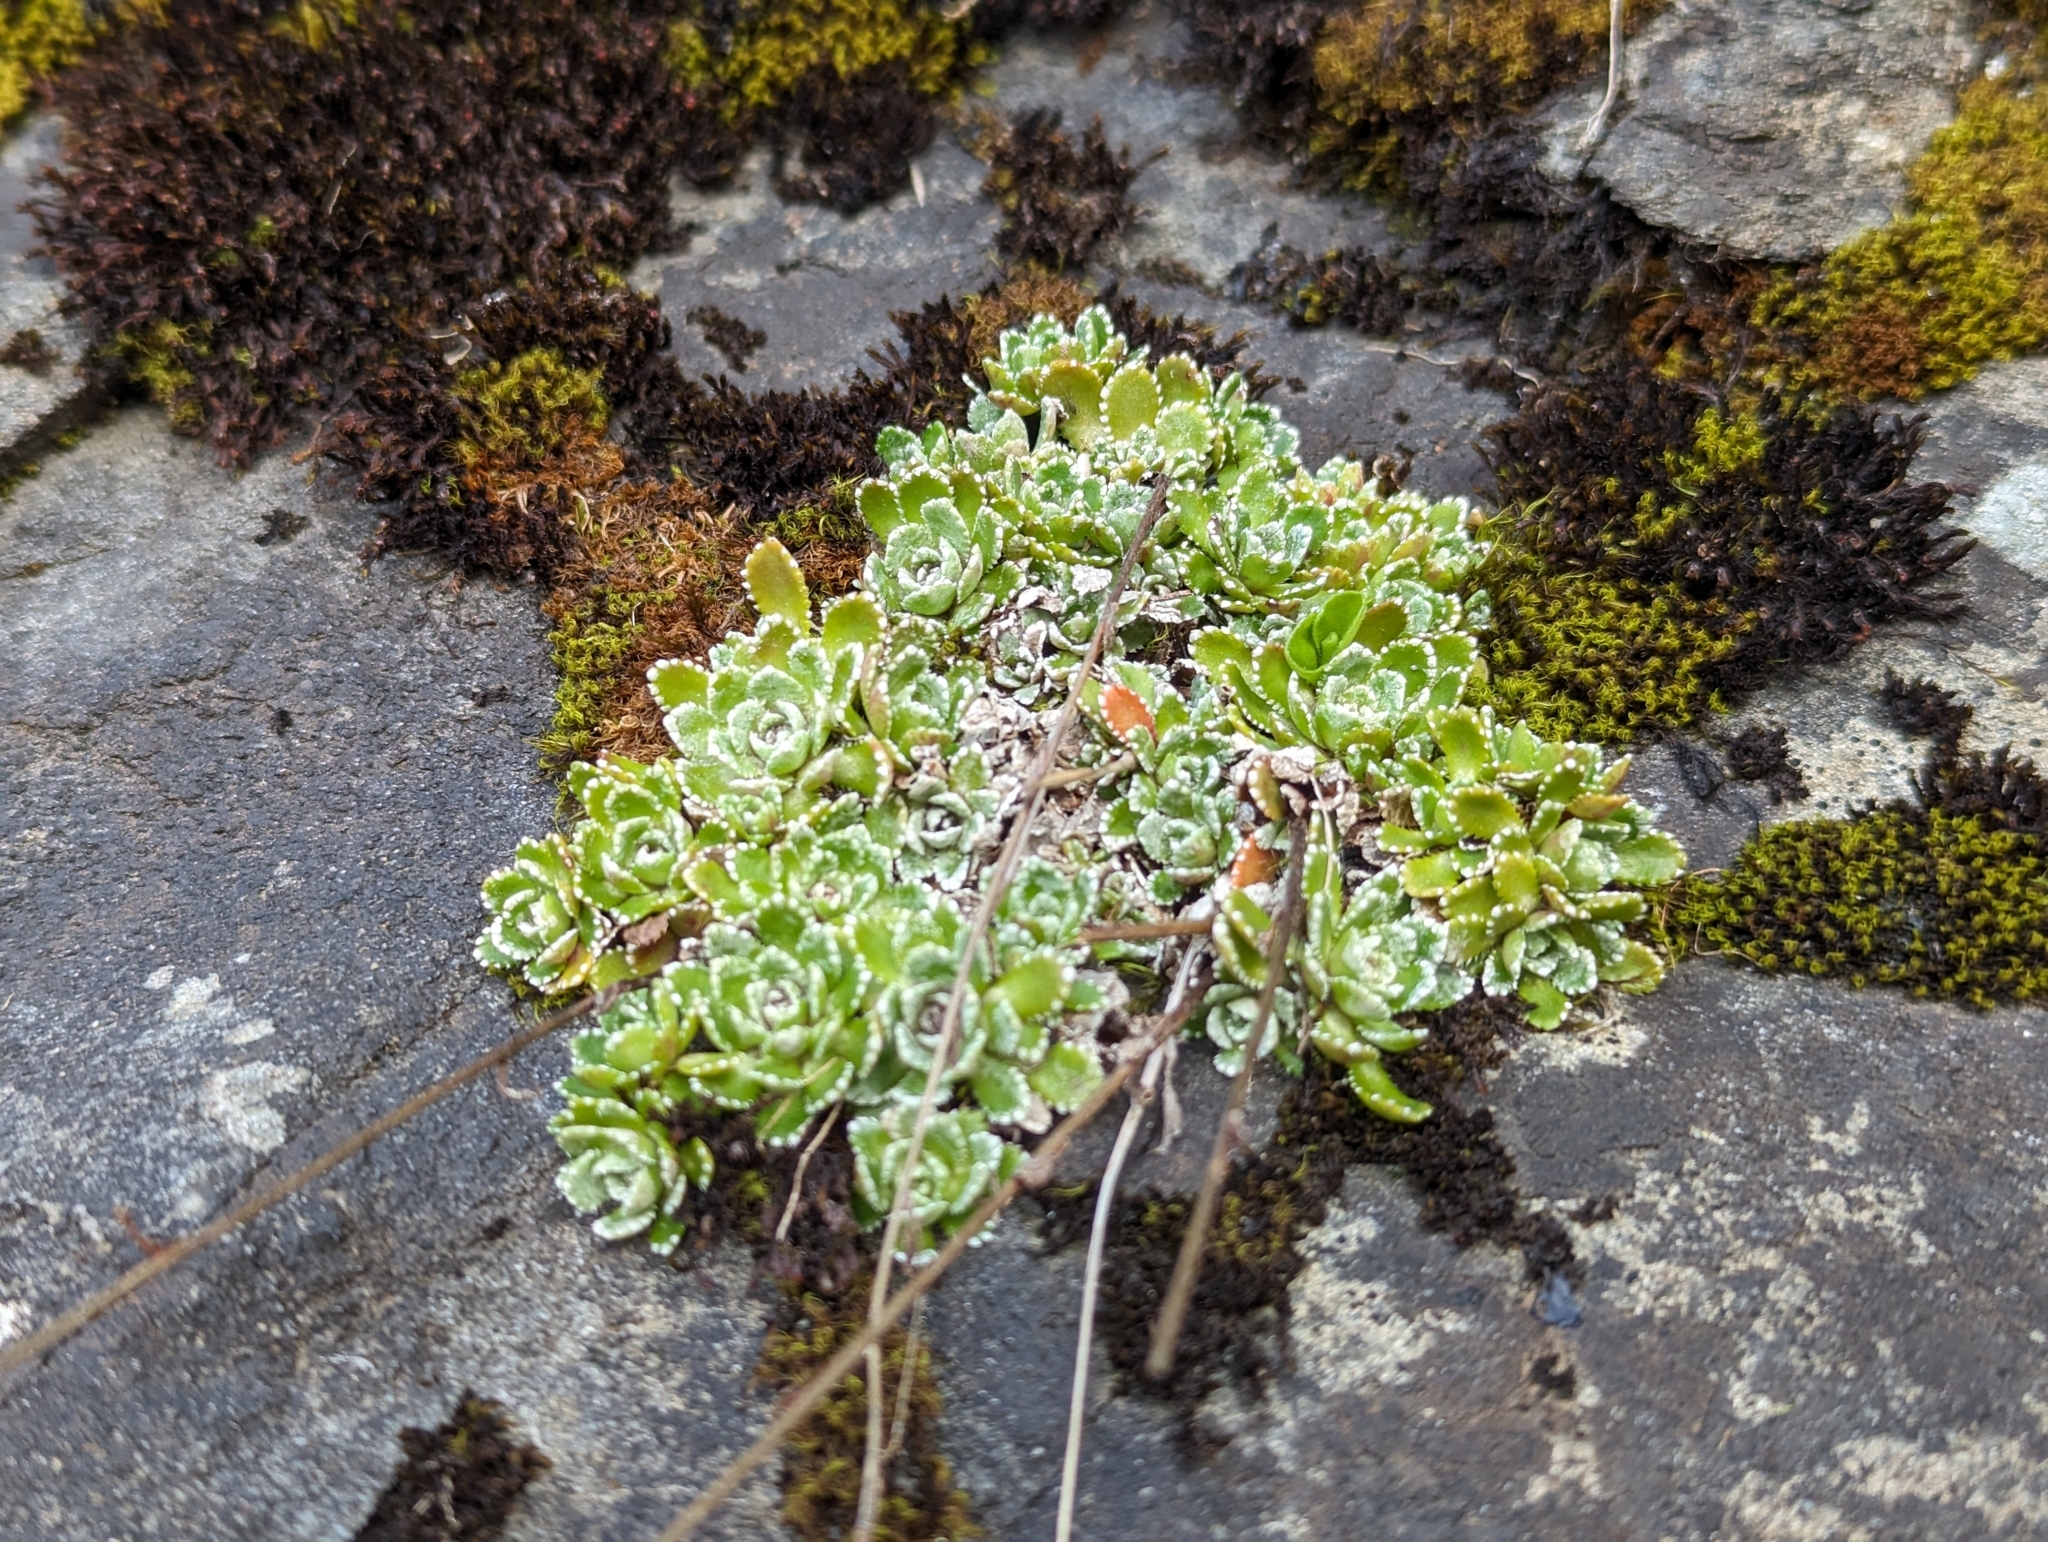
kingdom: Plantae
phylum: Tracheophyta
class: Magnoliopsida
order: Saxifragales
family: Saxifragaceae
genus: Saxifraga
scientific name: Saxifraga paniculata
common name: Livelong saxifrage
